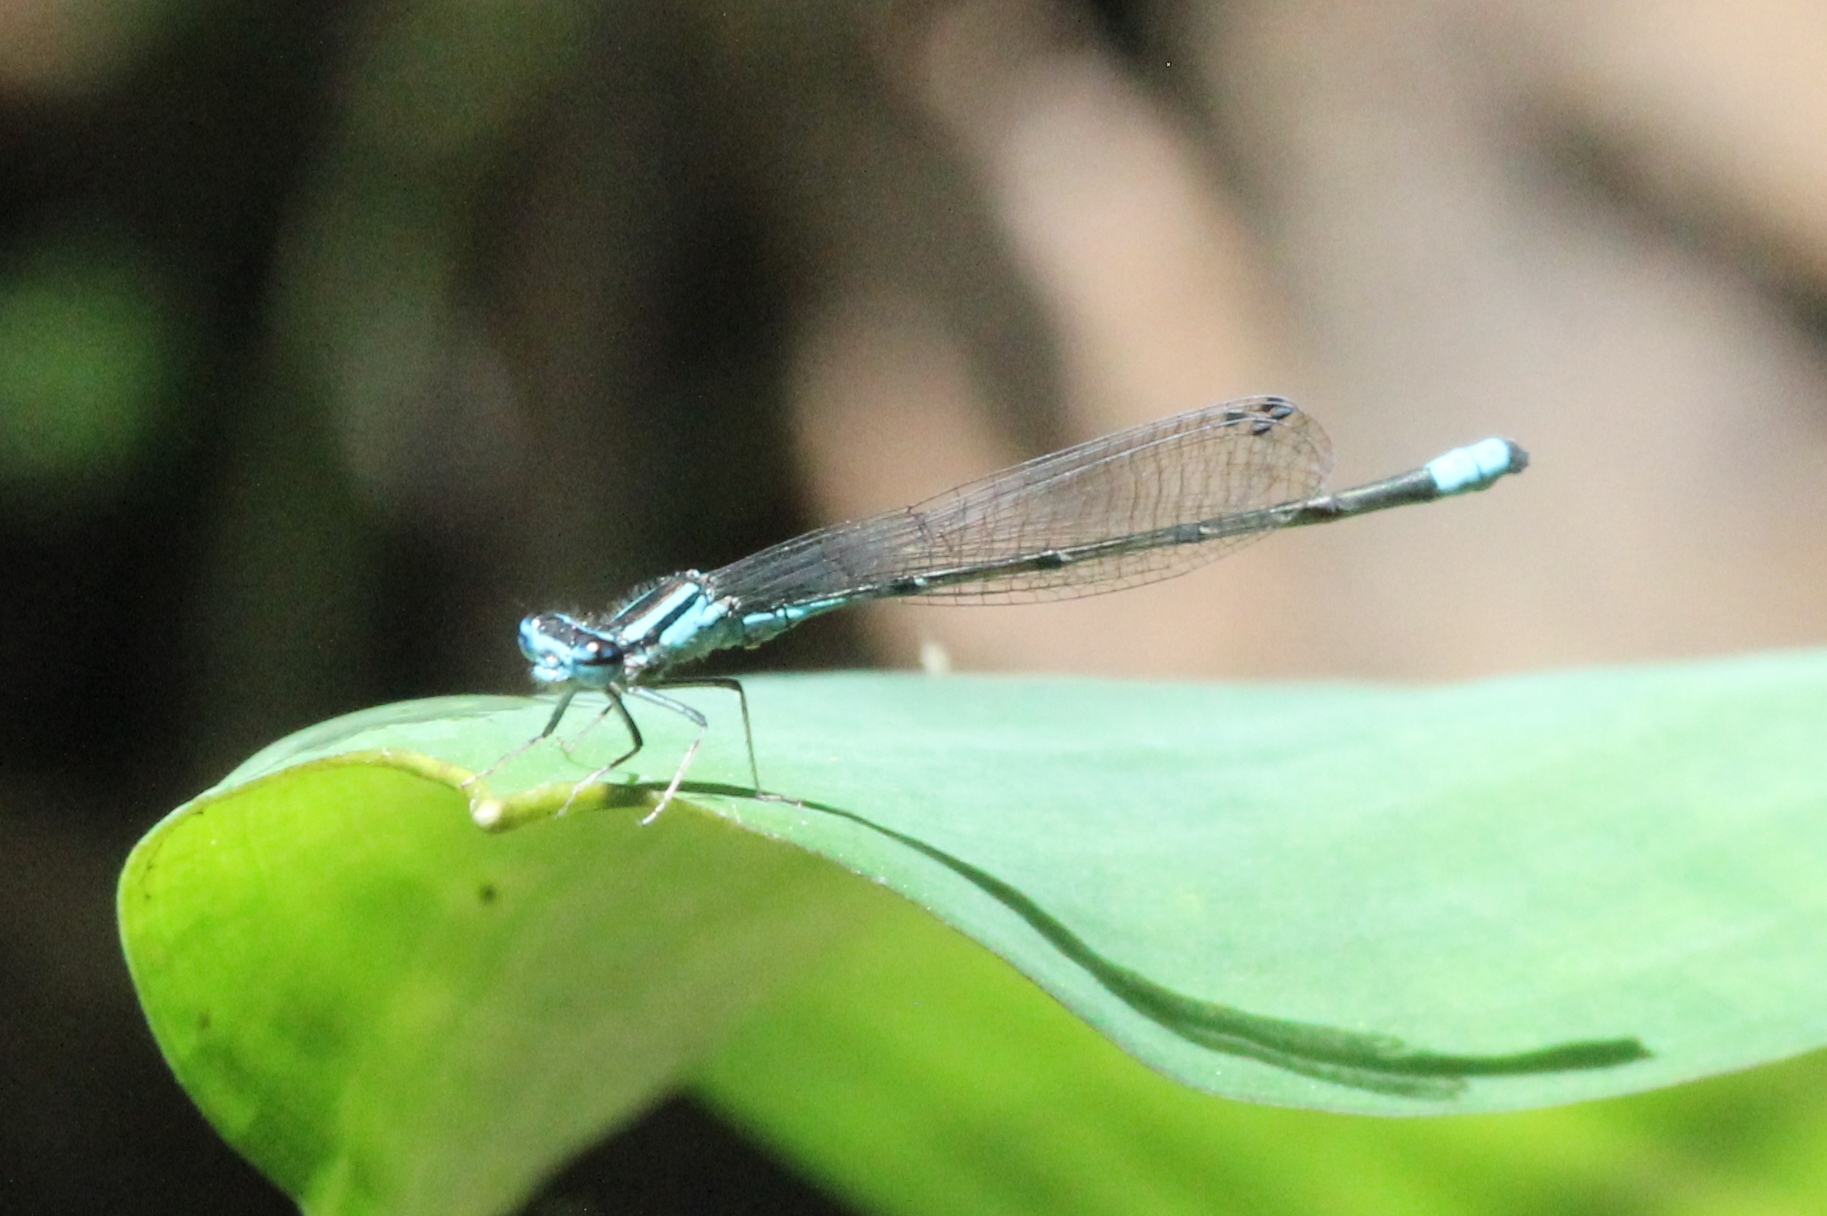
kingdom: Animalia
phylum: Arthropoda
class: Insecta
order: Odonata
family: Coenagrionidae
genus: Enallagma
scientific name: Enallagma divagans
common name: Turquoise bluet
